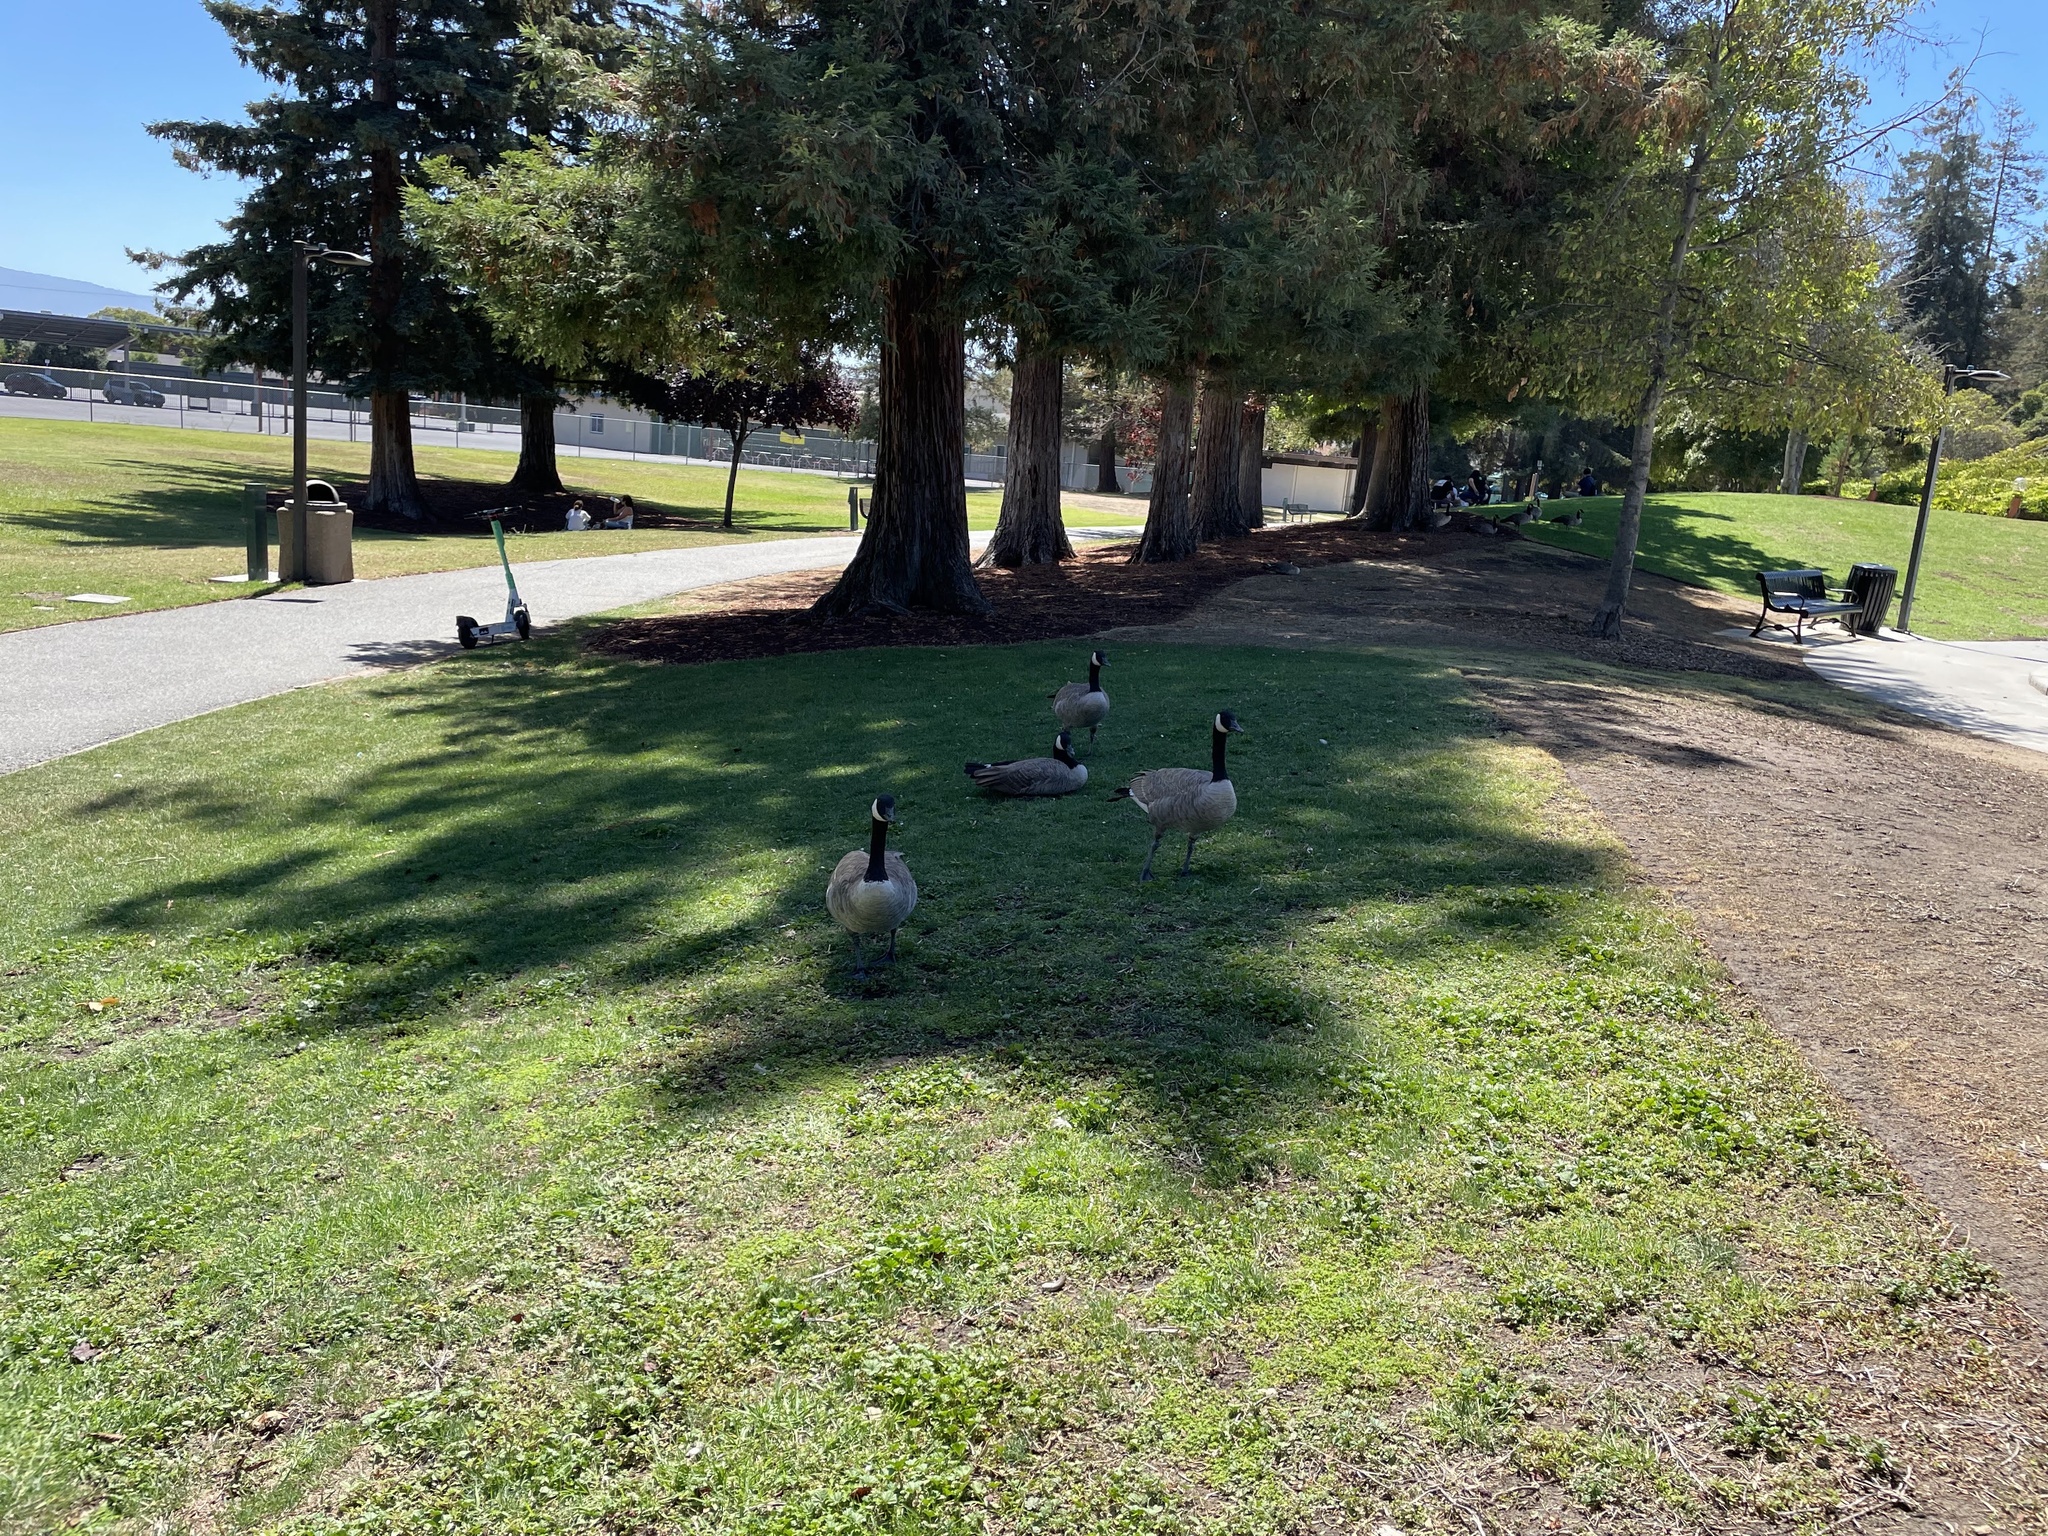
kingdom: Animalia
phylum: Chordata
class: Aves
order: Anseriformes
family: Anatidae
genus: Branta
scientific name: Branta canadensis
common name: Canada goose
